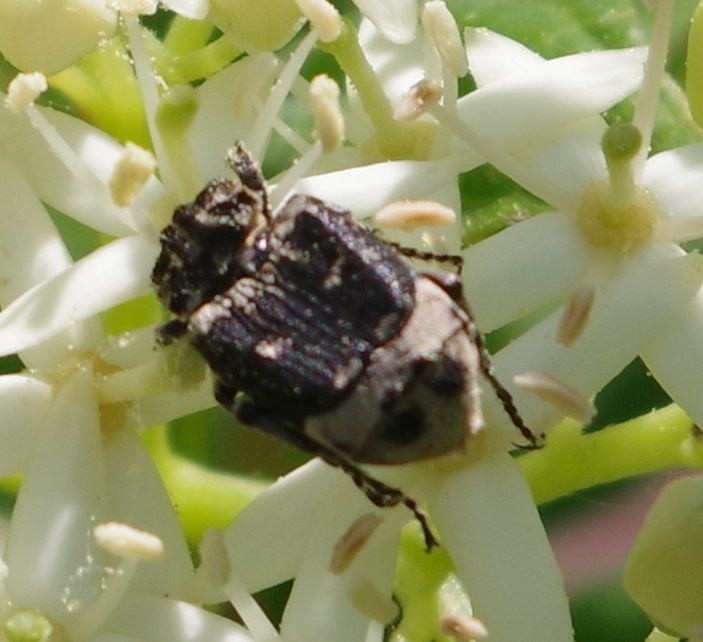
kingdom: Animalia
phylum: Arthropoda
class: Insecta
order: Coleoptera
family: Scarabaeidae
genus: Valgus
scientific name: Valgus hemipterus
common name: Bug flower chafer
